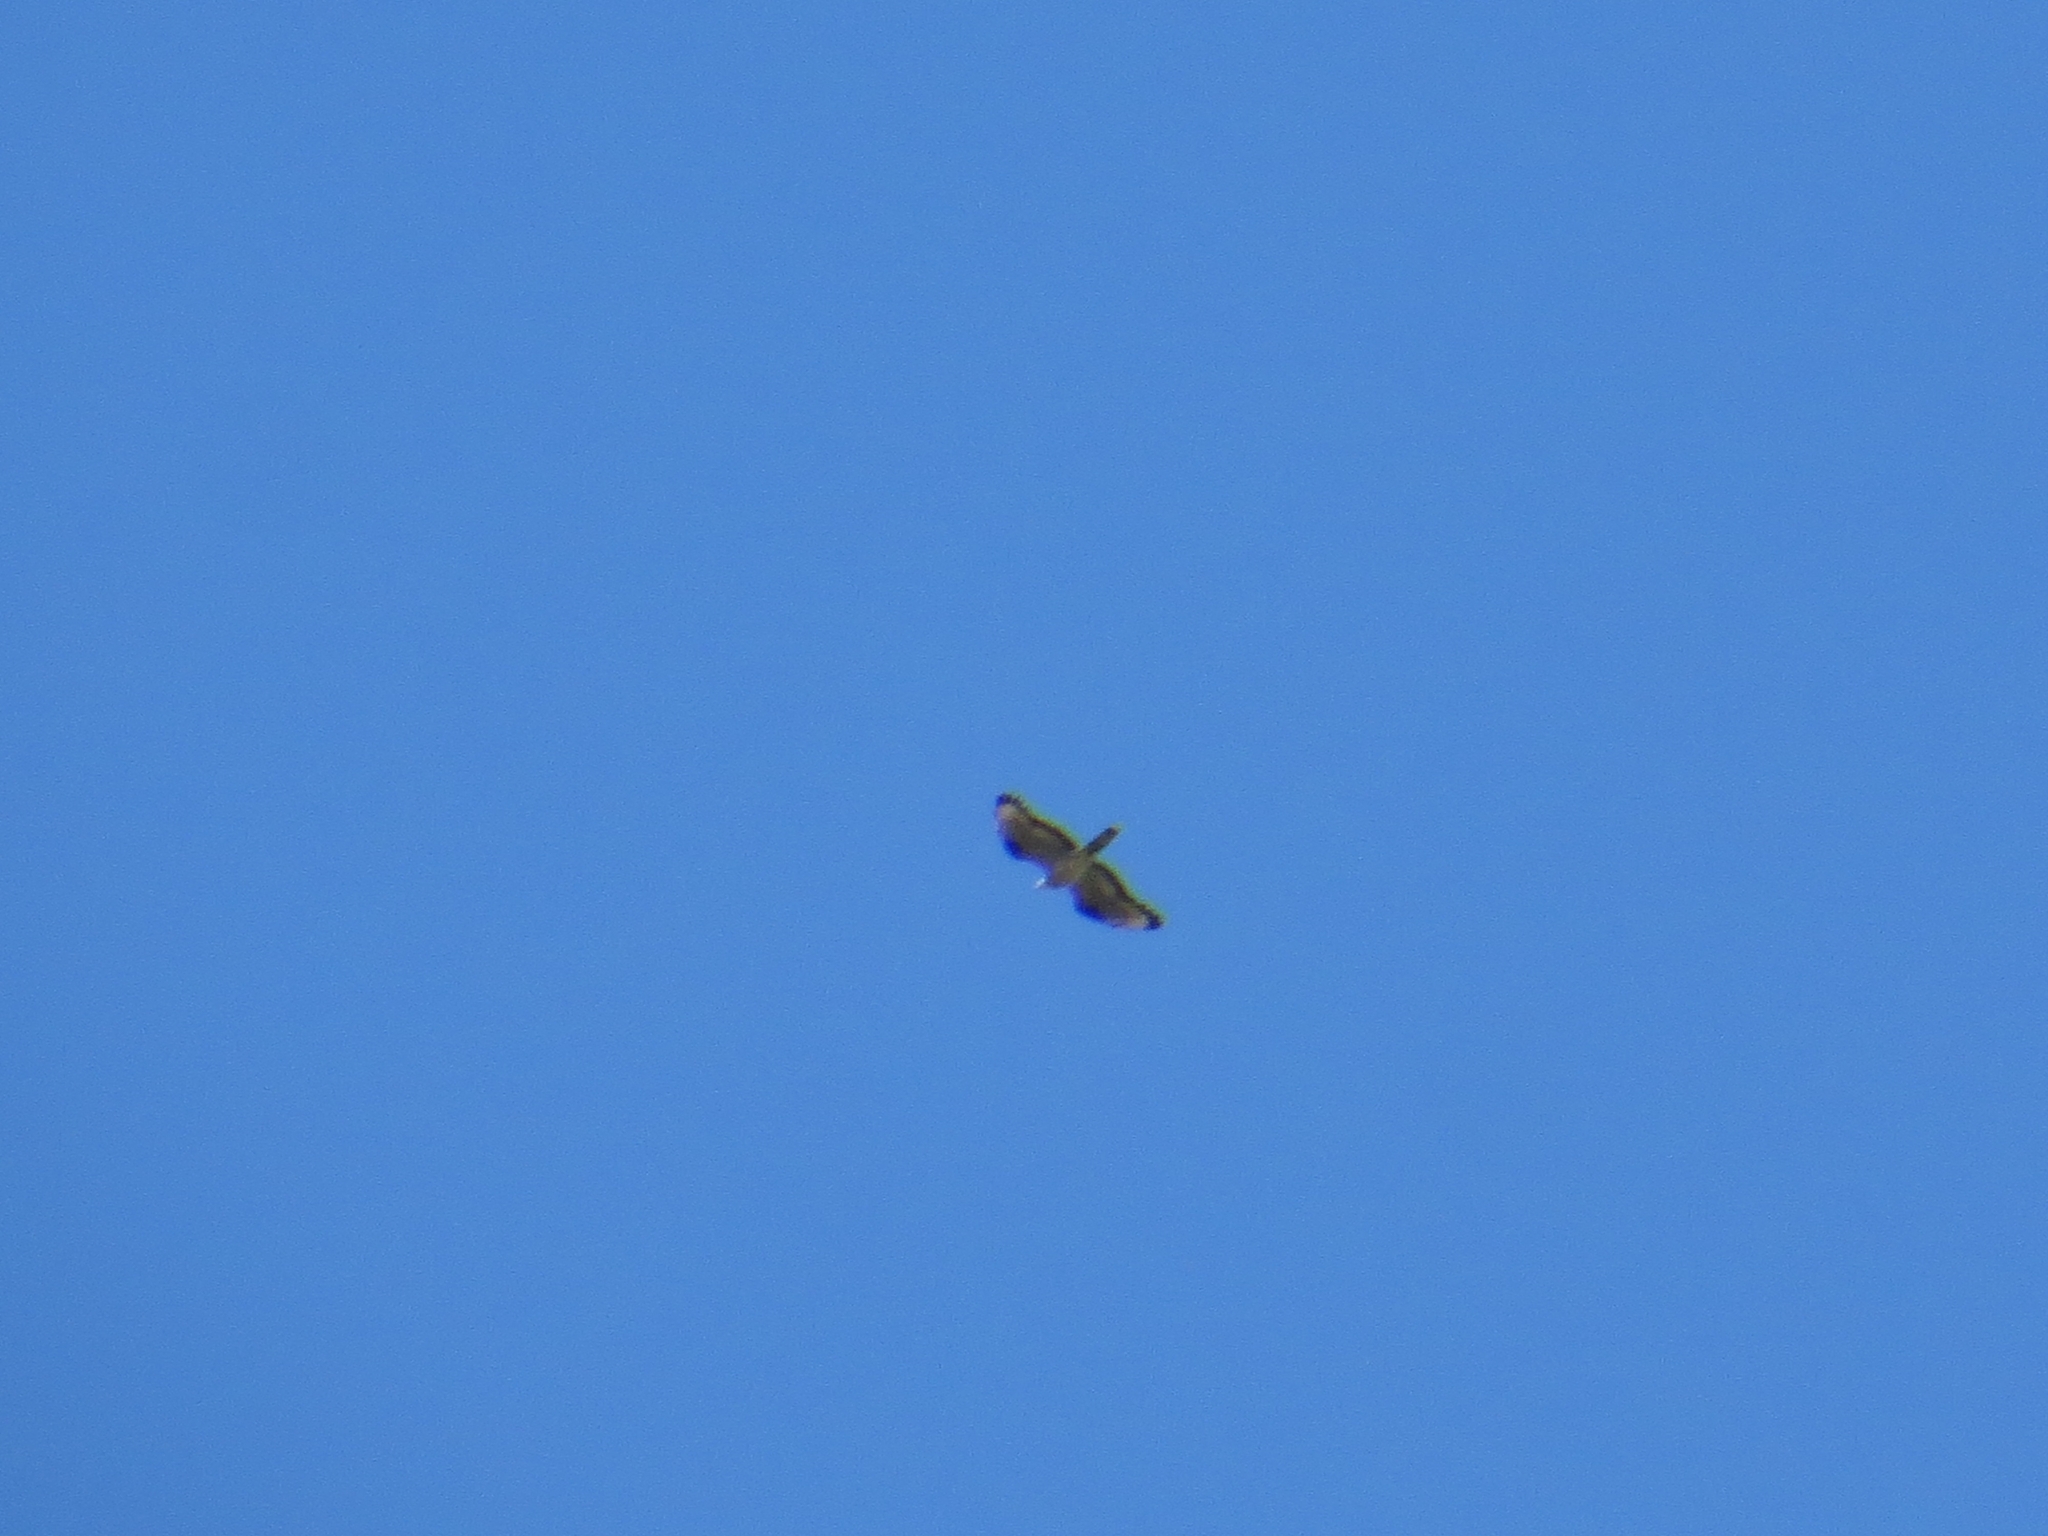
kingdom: Animalia
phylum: Chordata
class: Aves
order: Accipitriformes
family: Accipitridae
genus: Buteo
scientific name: Buteo buteo
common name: Common buzzard
